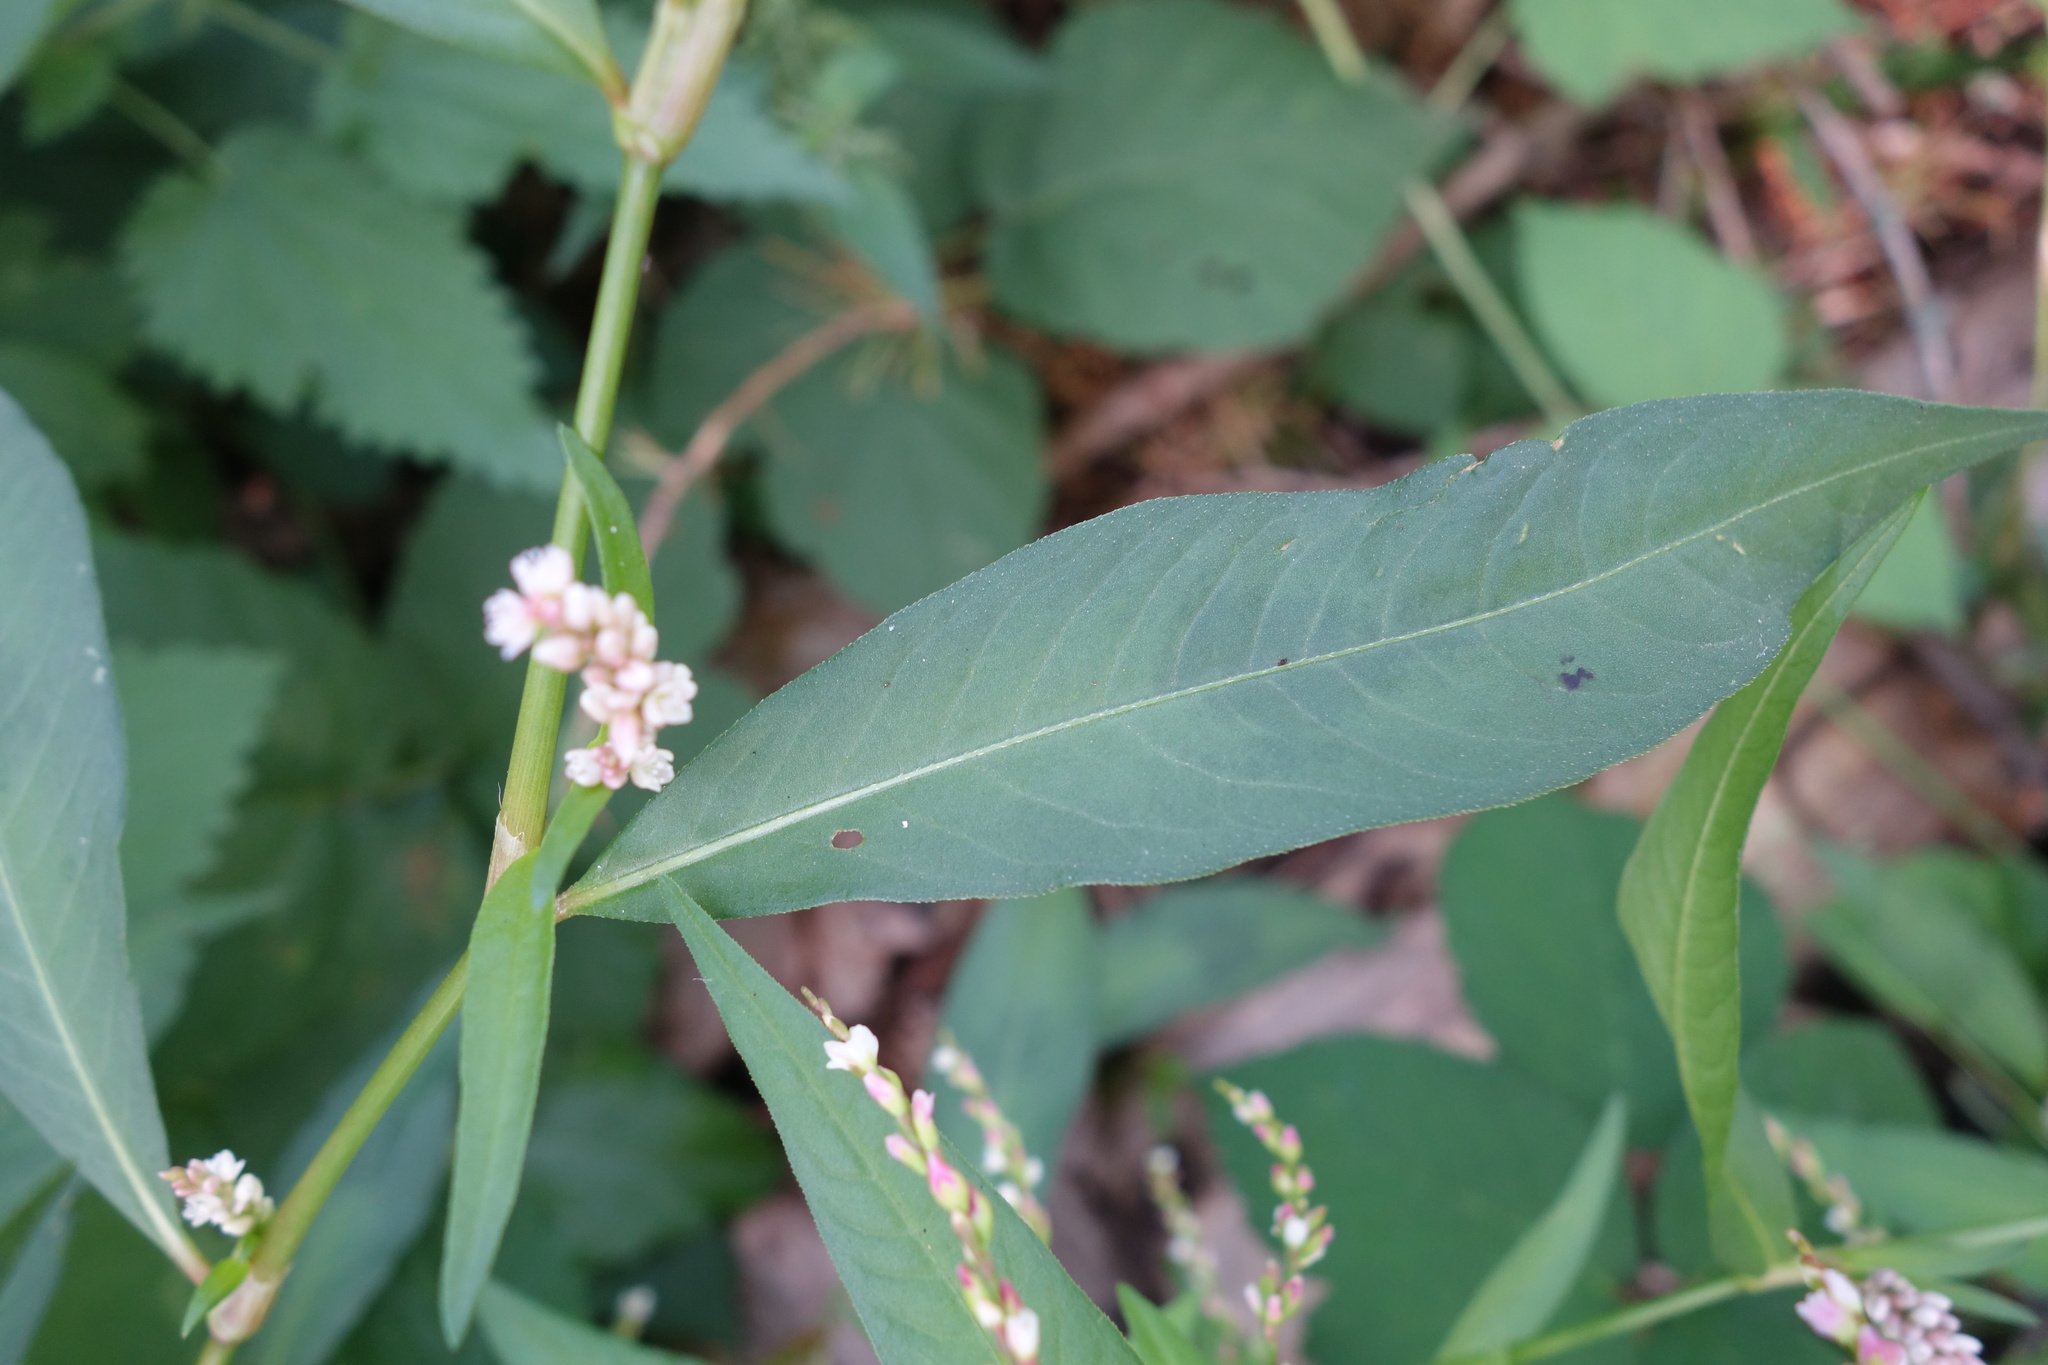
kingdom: Plantae
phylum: Tracheophyta
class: Magnoliopsida
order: Caryophyllales
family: Polygonaceae
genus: Persicaria
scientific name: Persicaria maculosa
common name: Redshank
